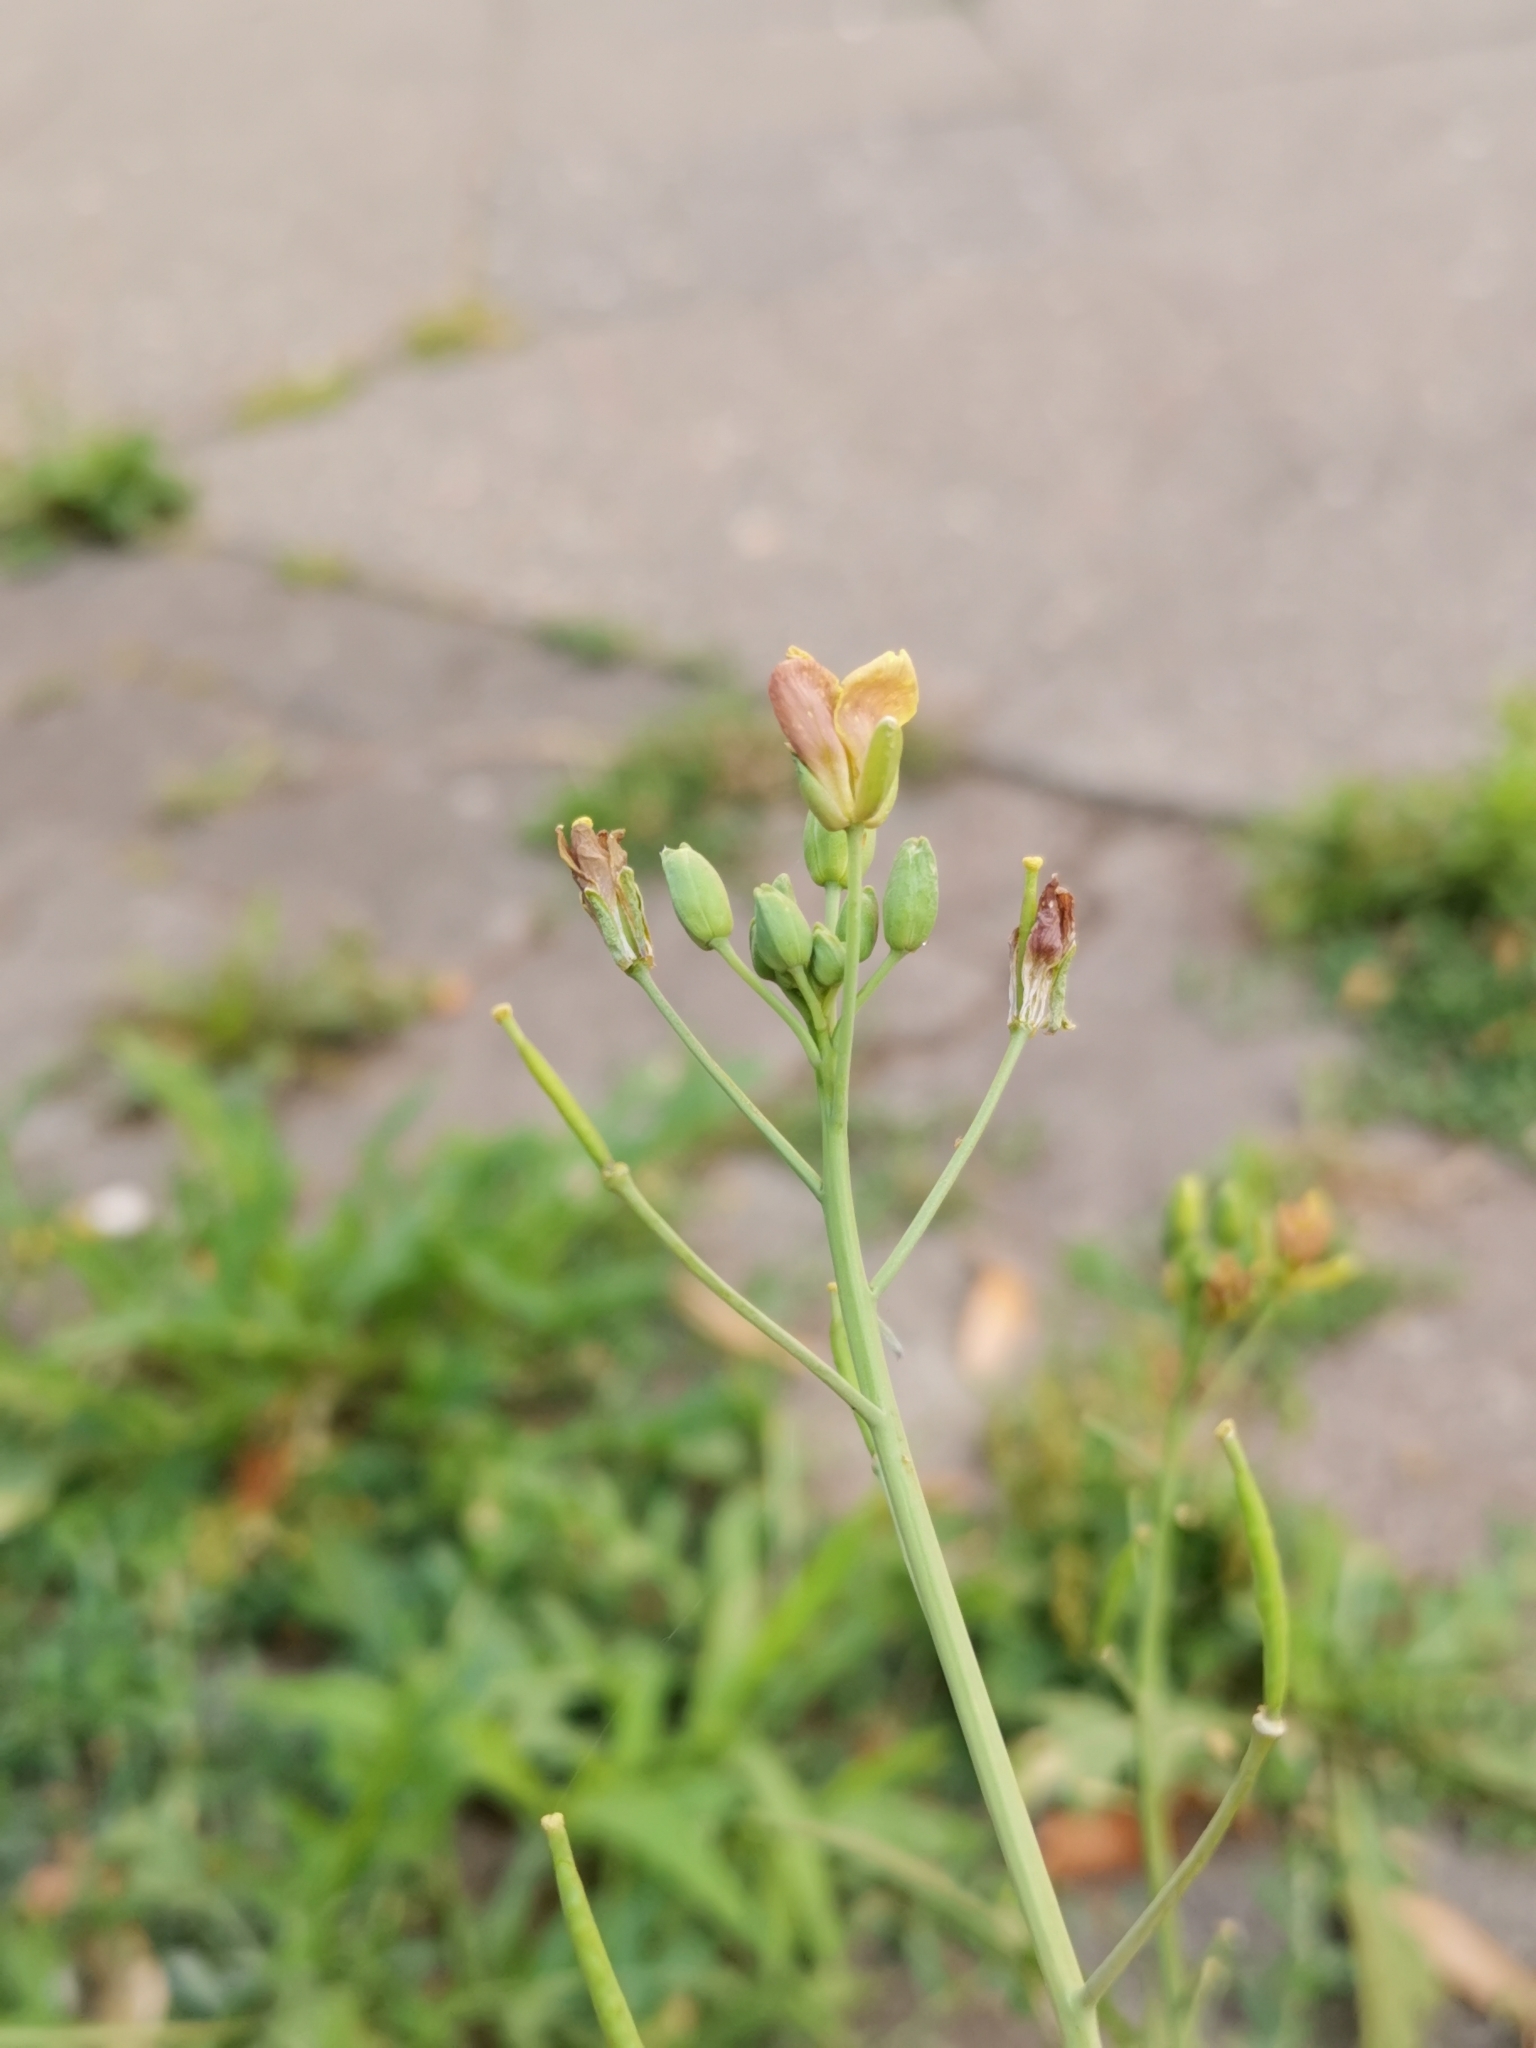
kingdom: Plantae
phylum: Tracheophyta
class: Magnoliopsida
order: Brassicales
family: Brassicaceae
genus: Diplotaxis
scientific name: Diplotaxis tenuifolia
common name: Perennial wall-rocket
